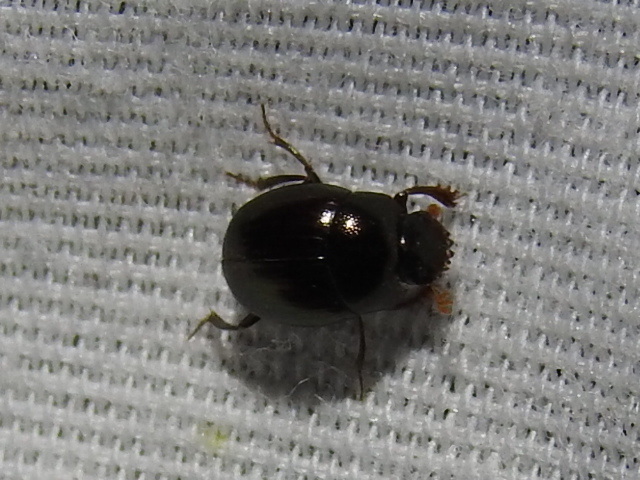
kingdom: Animalia
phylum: Arthropoda
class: Insecta
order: Coleoptera
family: Scarabaeidae
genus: Pseudocanthon
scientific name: Pseudocanthon perplexus
